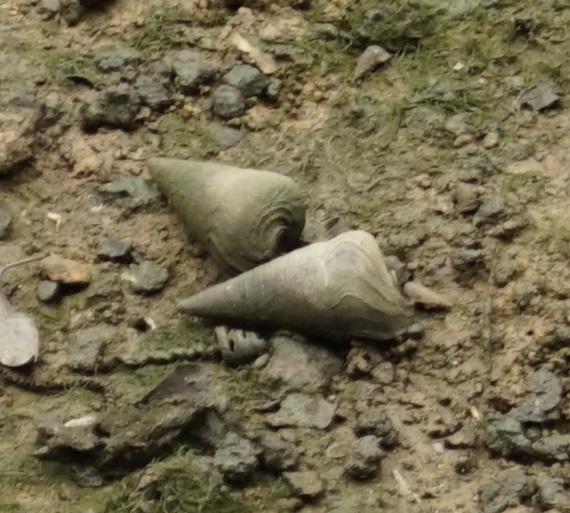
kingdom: Animalia
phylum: Mollusca
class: Gastropoda
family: Potamididae
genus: Telescopium
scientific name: Telescopium telescopium
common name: Telescope creeper
